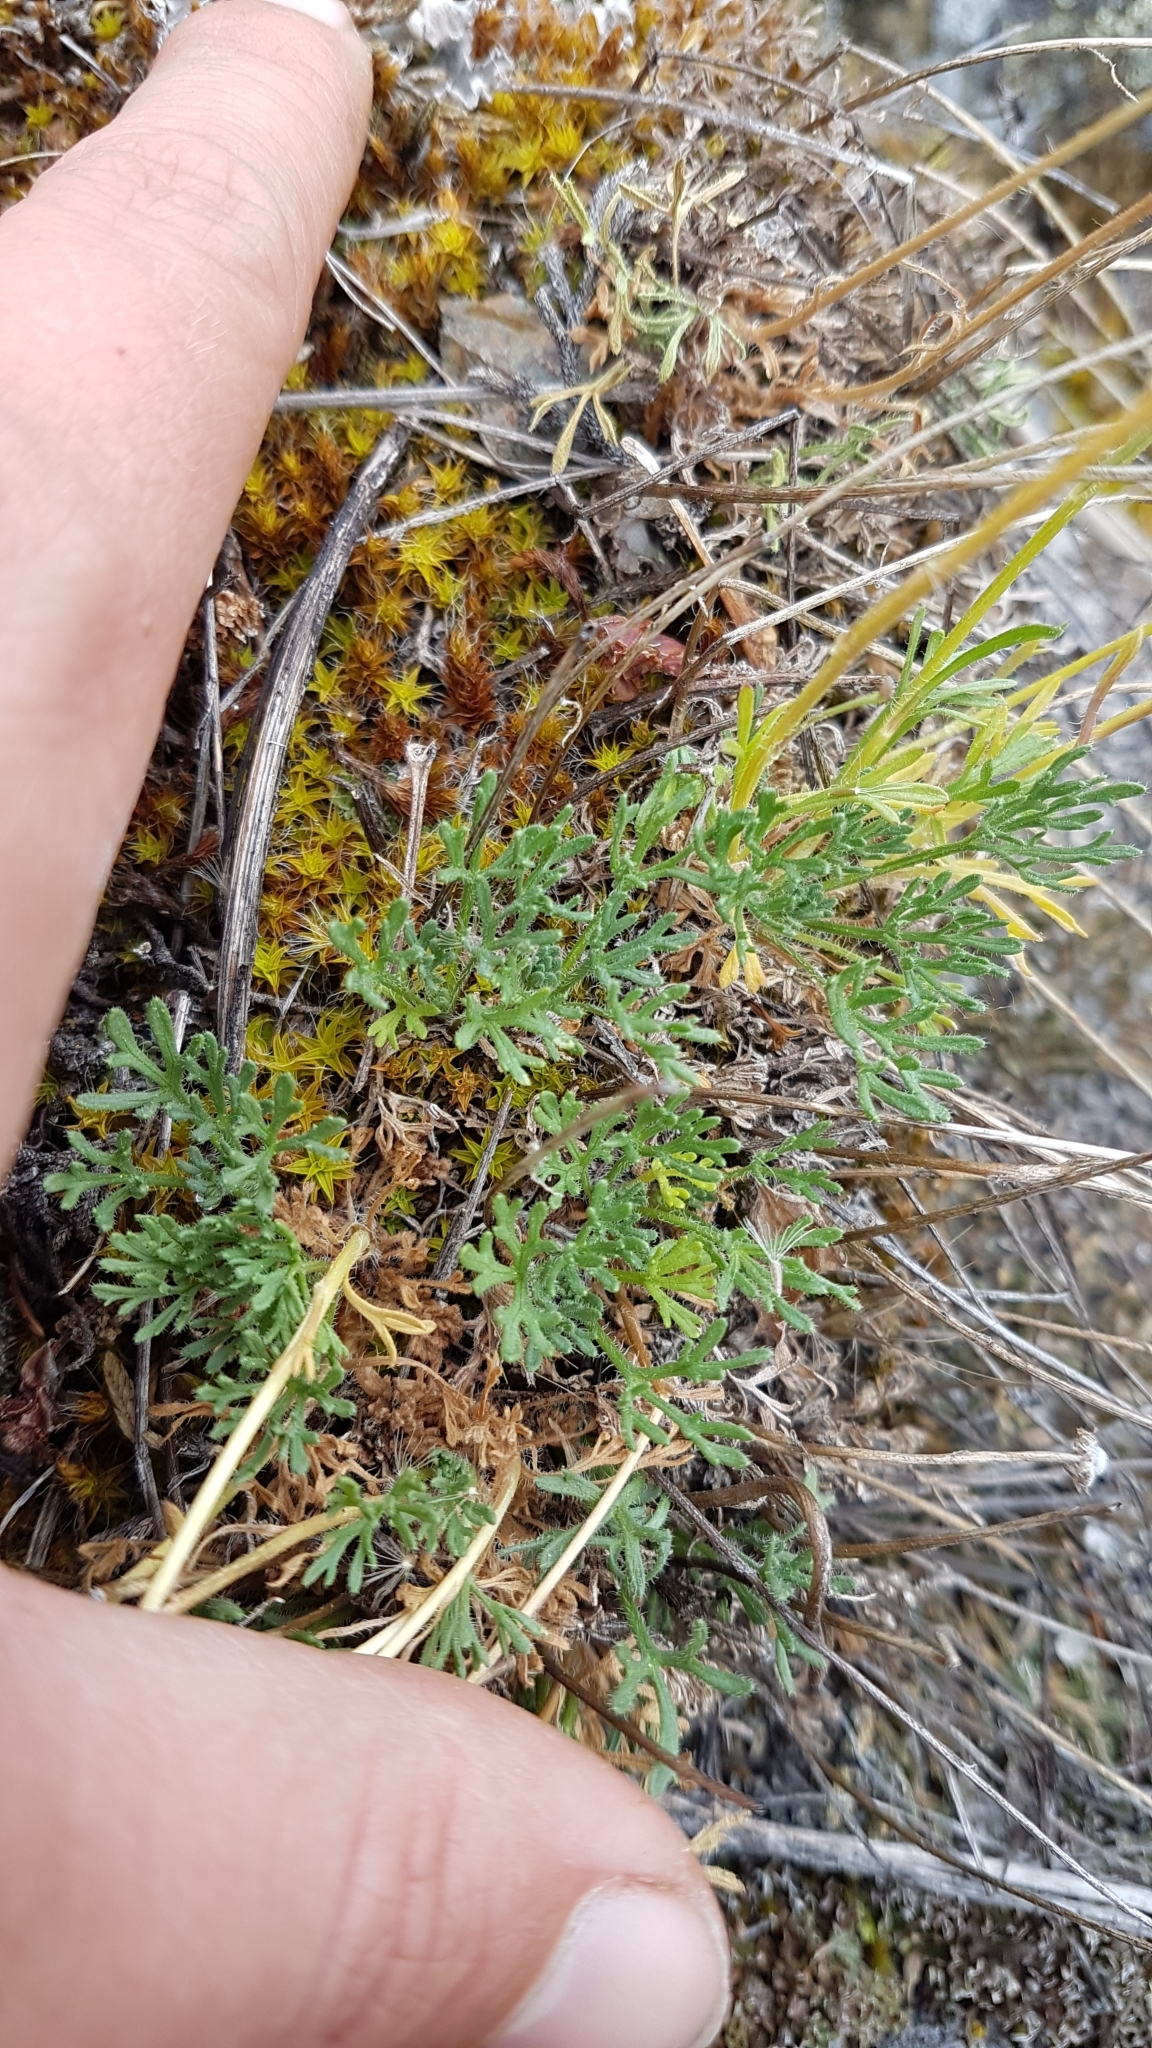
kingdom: Plantae
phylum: Tracheophyta
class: Magnoliopsida
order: Asterales
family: Asteraceae
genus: Erigeron
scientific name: Erigeron compositus
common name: Dwarf mountain fleabane
